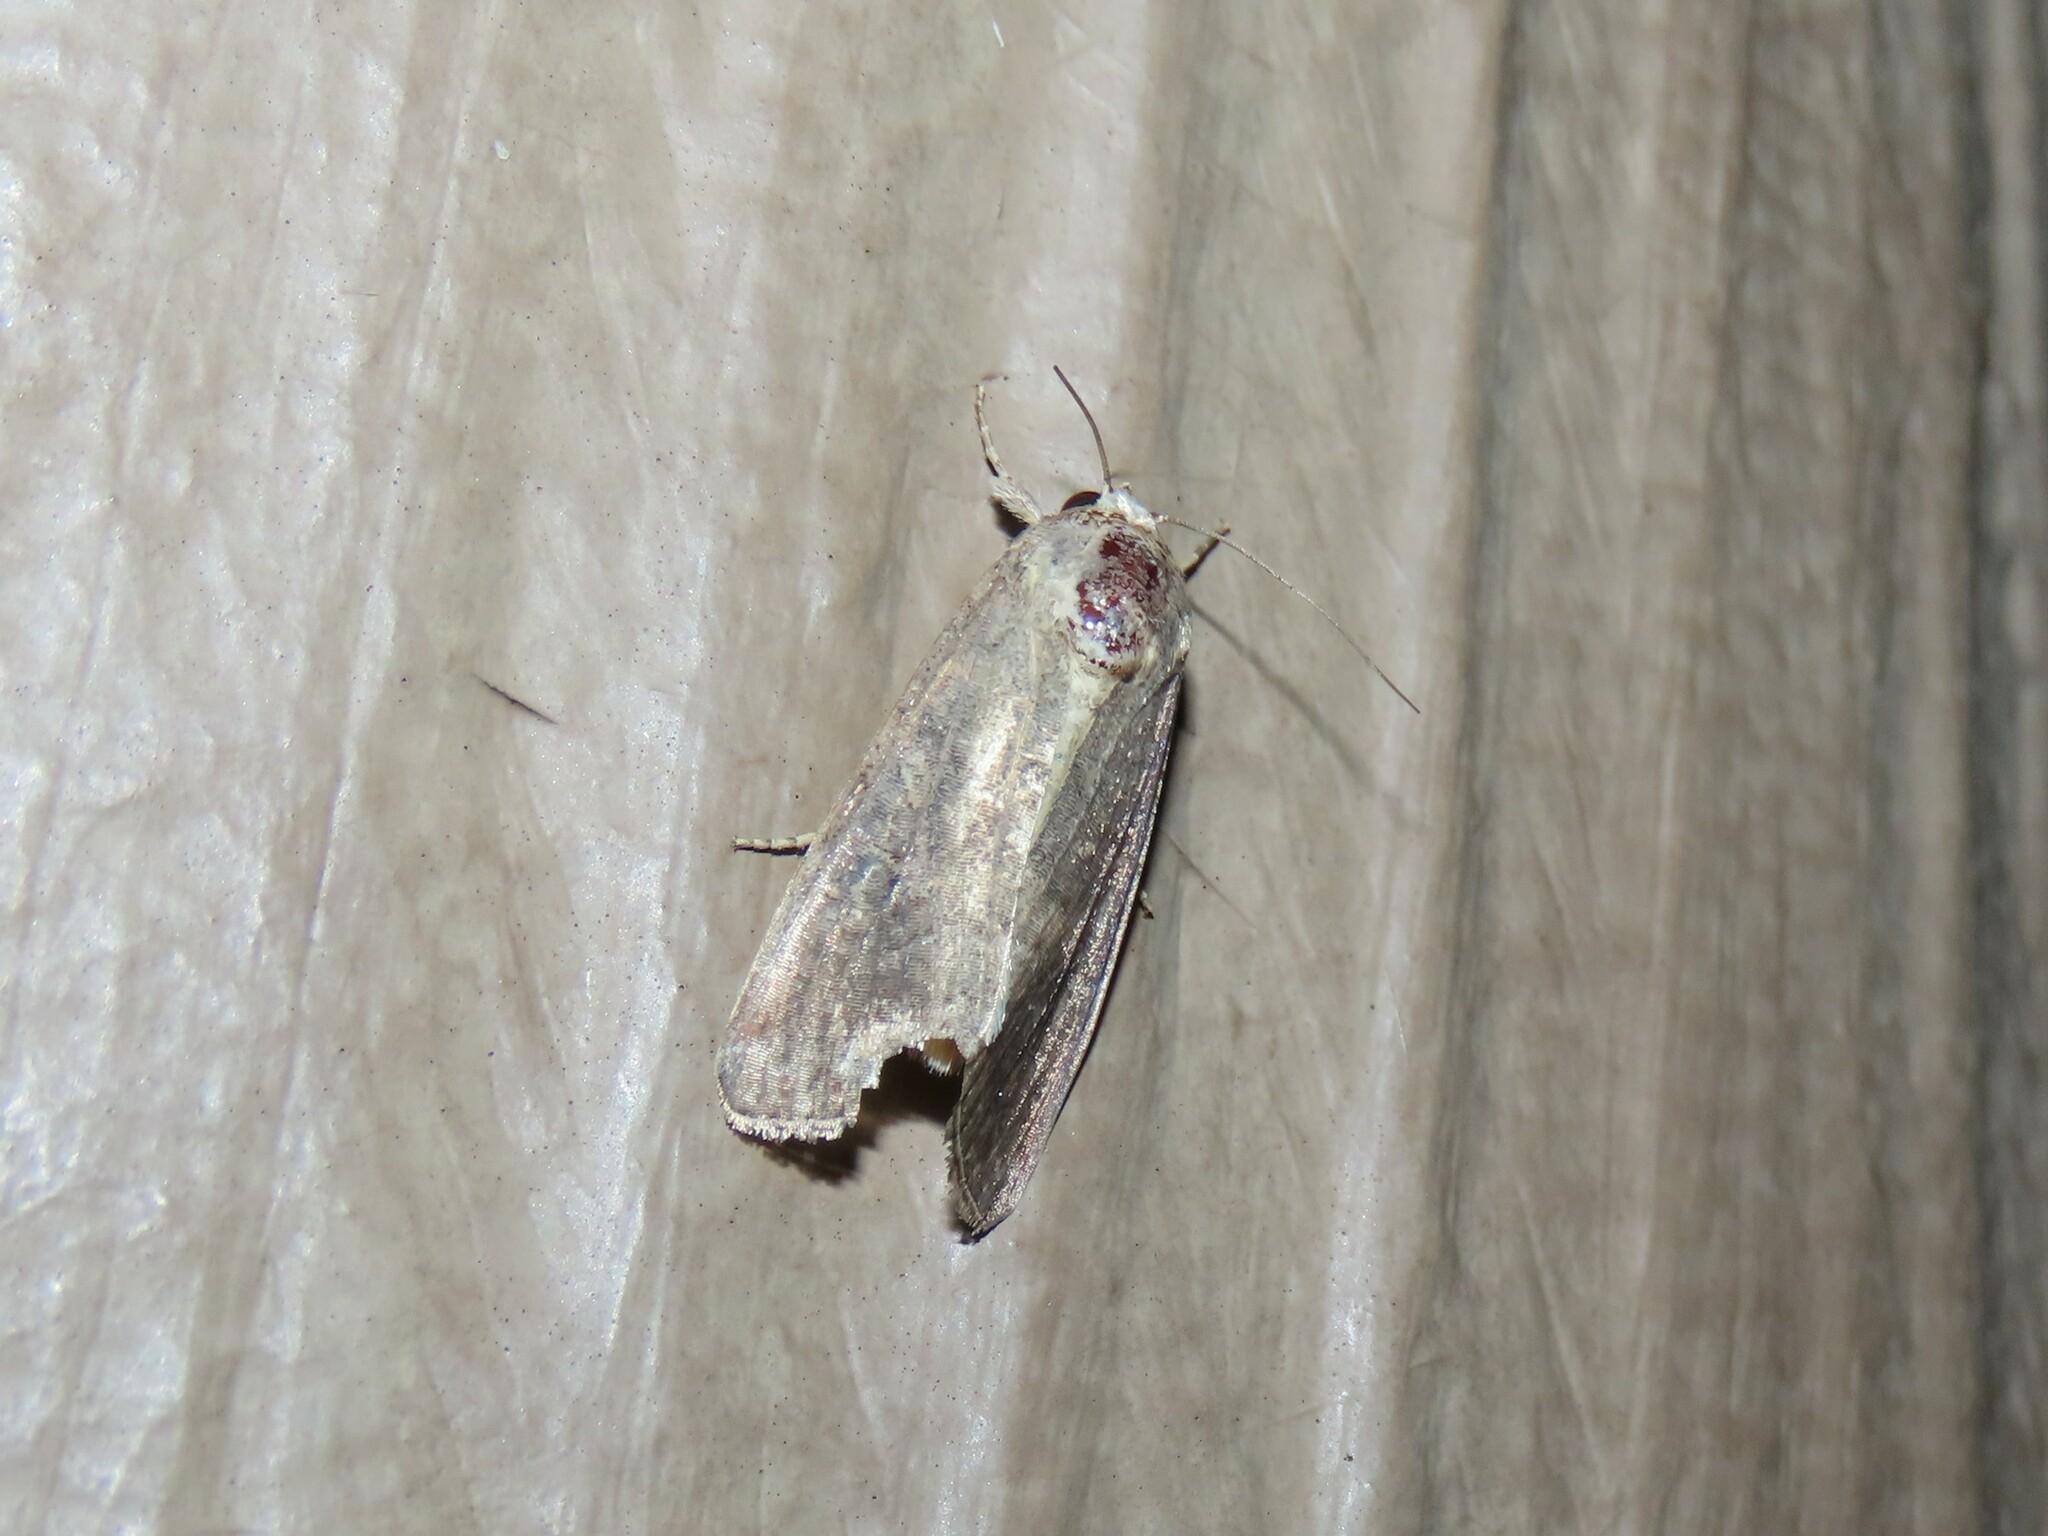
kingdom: Animalia
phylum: Arthropoda
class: Insecta
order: Lepidoptera
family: Noctuidae
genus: Spodoptera
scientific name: Spodoptera frugiperda
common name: Fall armyworm
